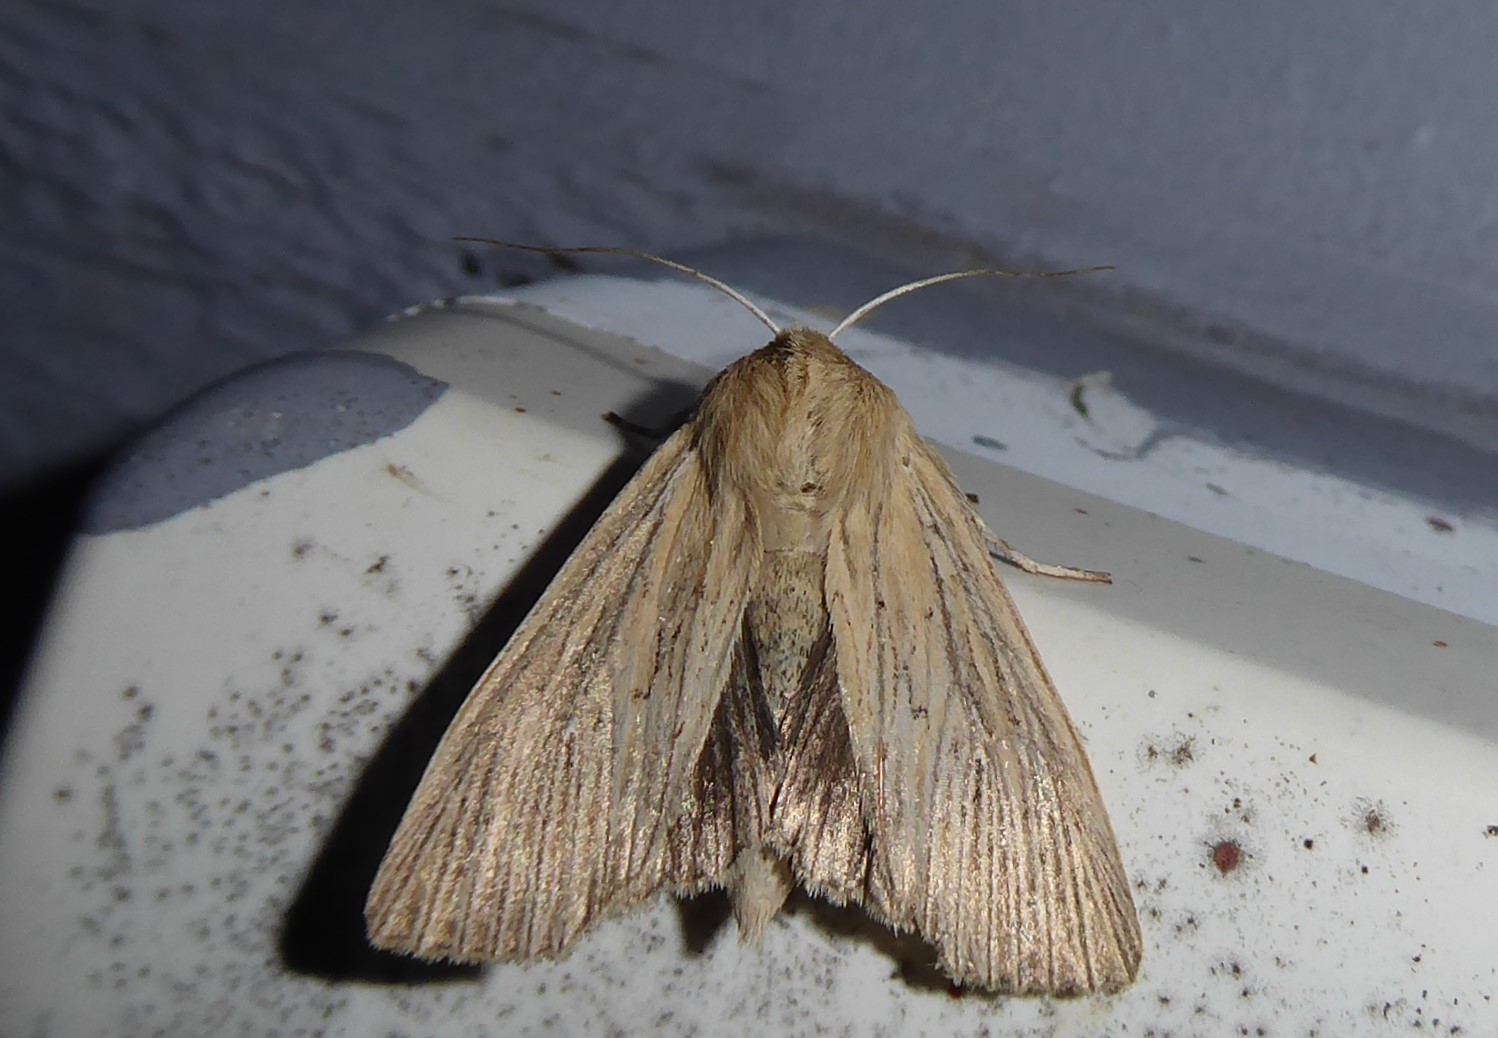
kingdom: Animalia
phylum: Arthropoda
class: Insecta
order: Lepidoptera
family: Noctuidae
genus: Ichneutica
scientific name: Ichneutica arotis
